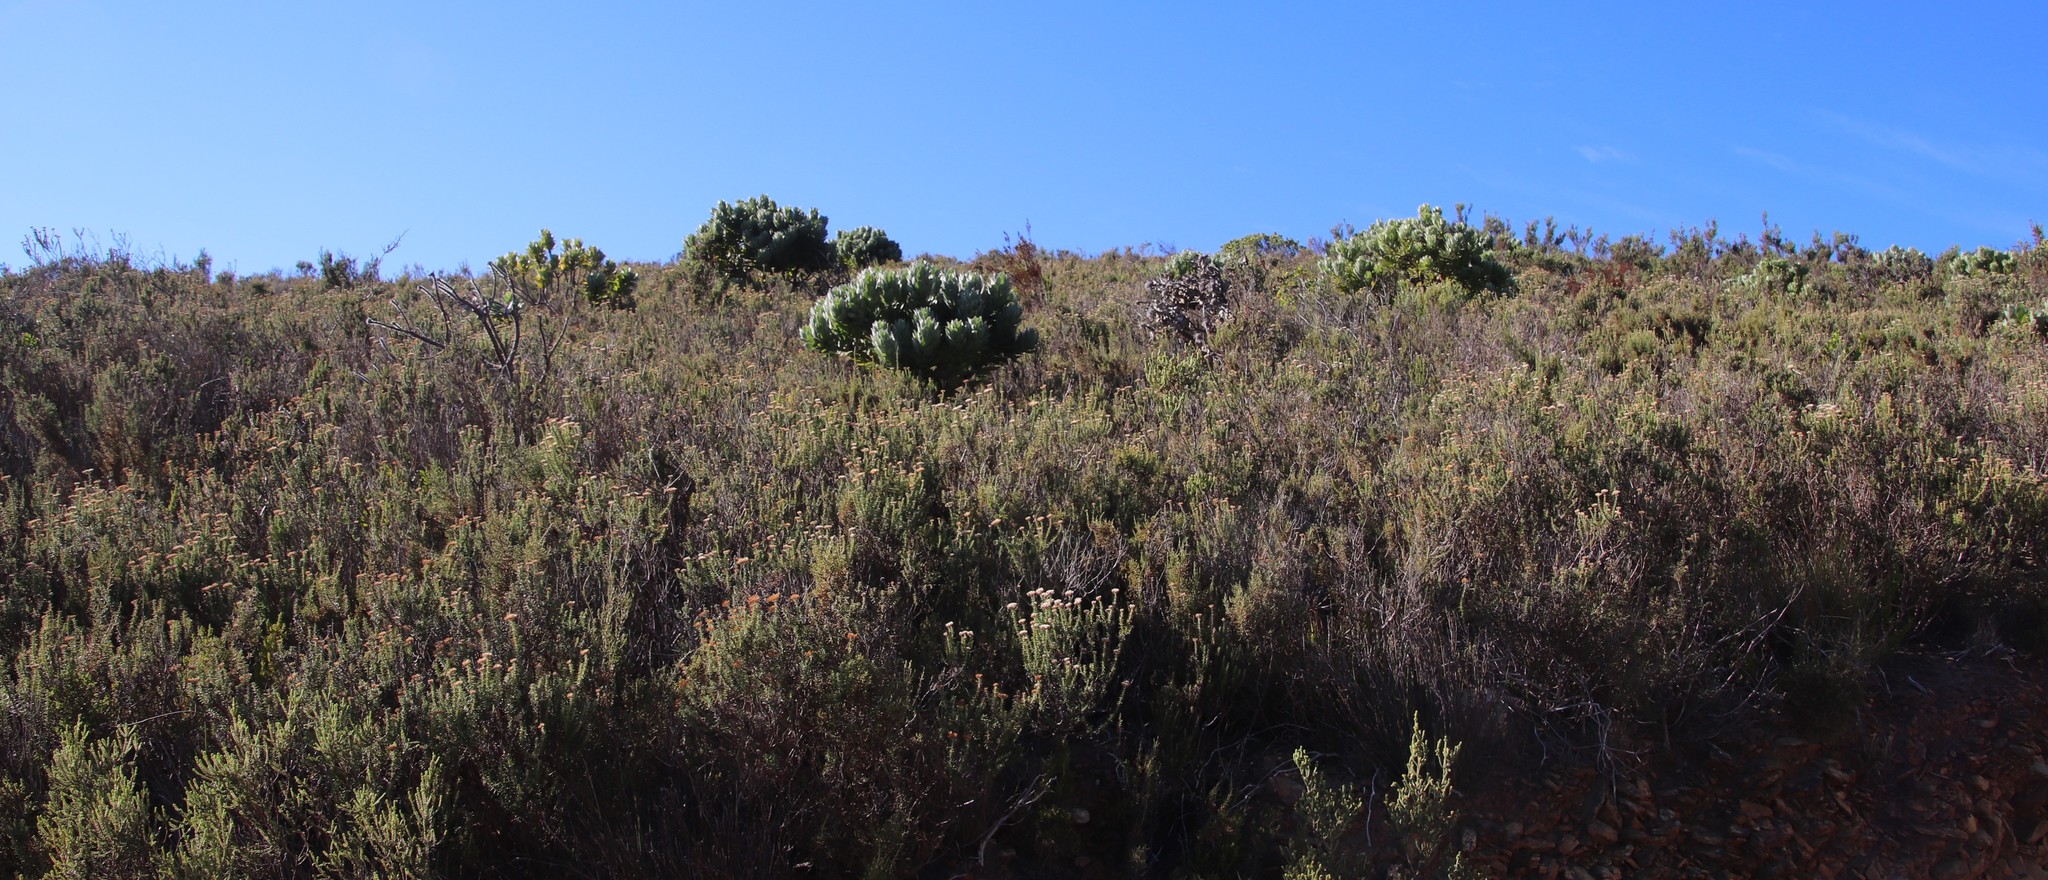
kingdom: Plantae
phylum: Tracheophyta
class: Magnoliopsida
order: Proteales
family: Proteaceae
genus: Leucospermum
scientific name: Leucospermum conocarpodendron
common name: Tree pincushion
